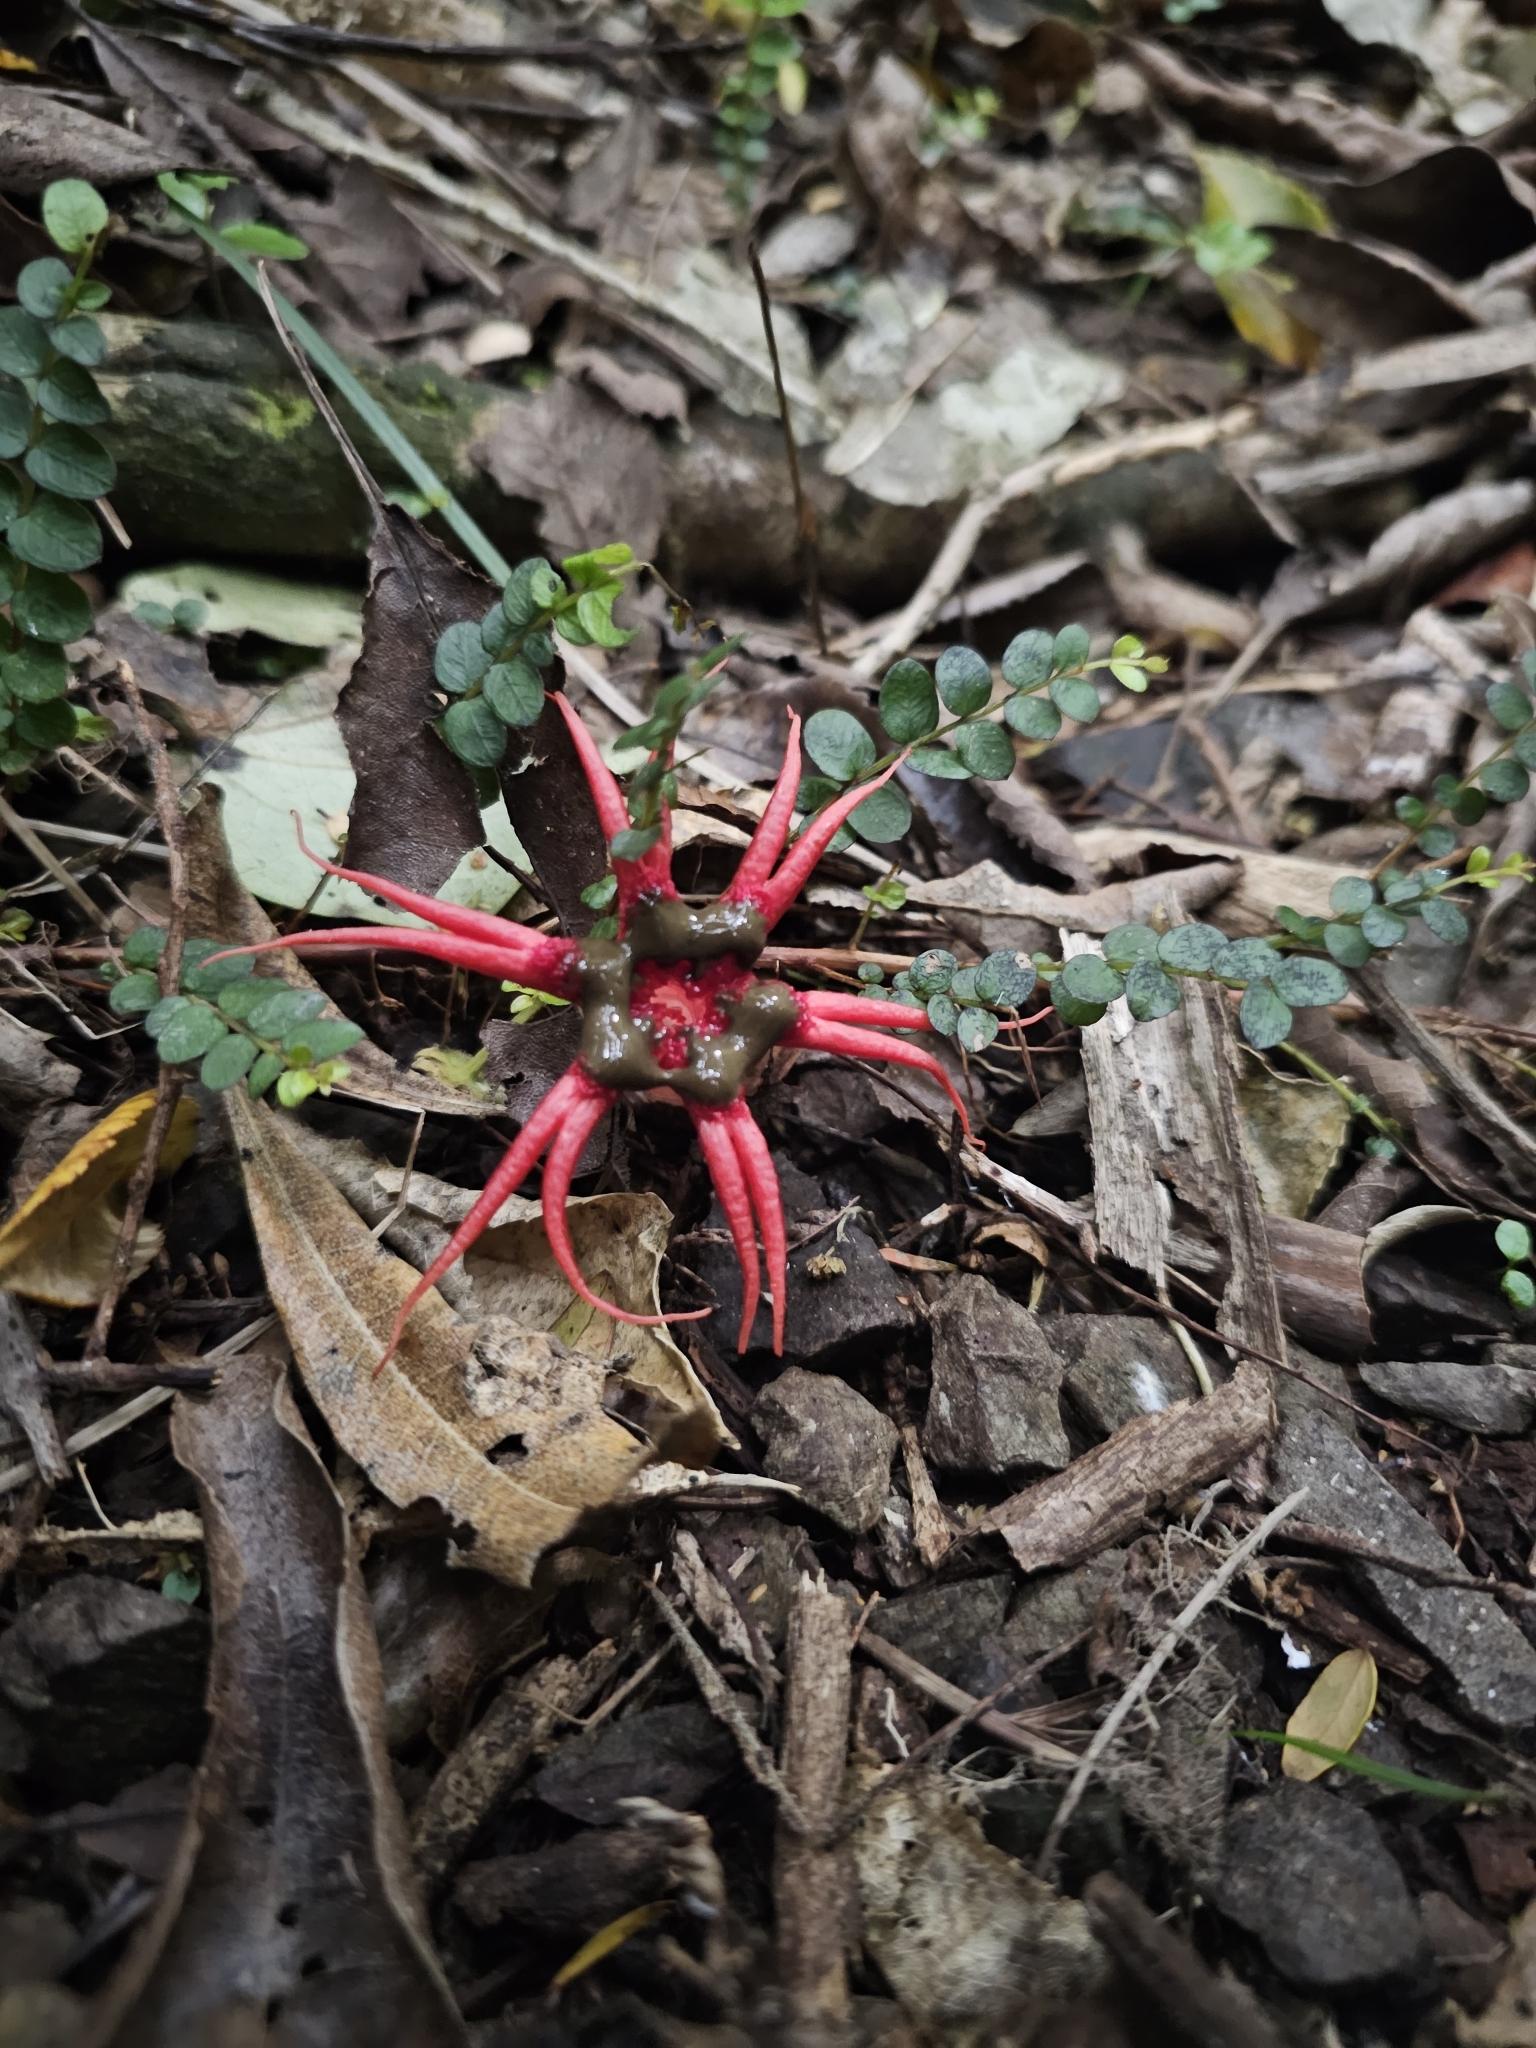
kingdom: Fungi
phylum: Basidiomycota
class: Agaricomycetes
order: Phallales
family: Phallaceae
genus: Aseroe
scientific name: Aseroe rubra
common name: Starfish fungus
